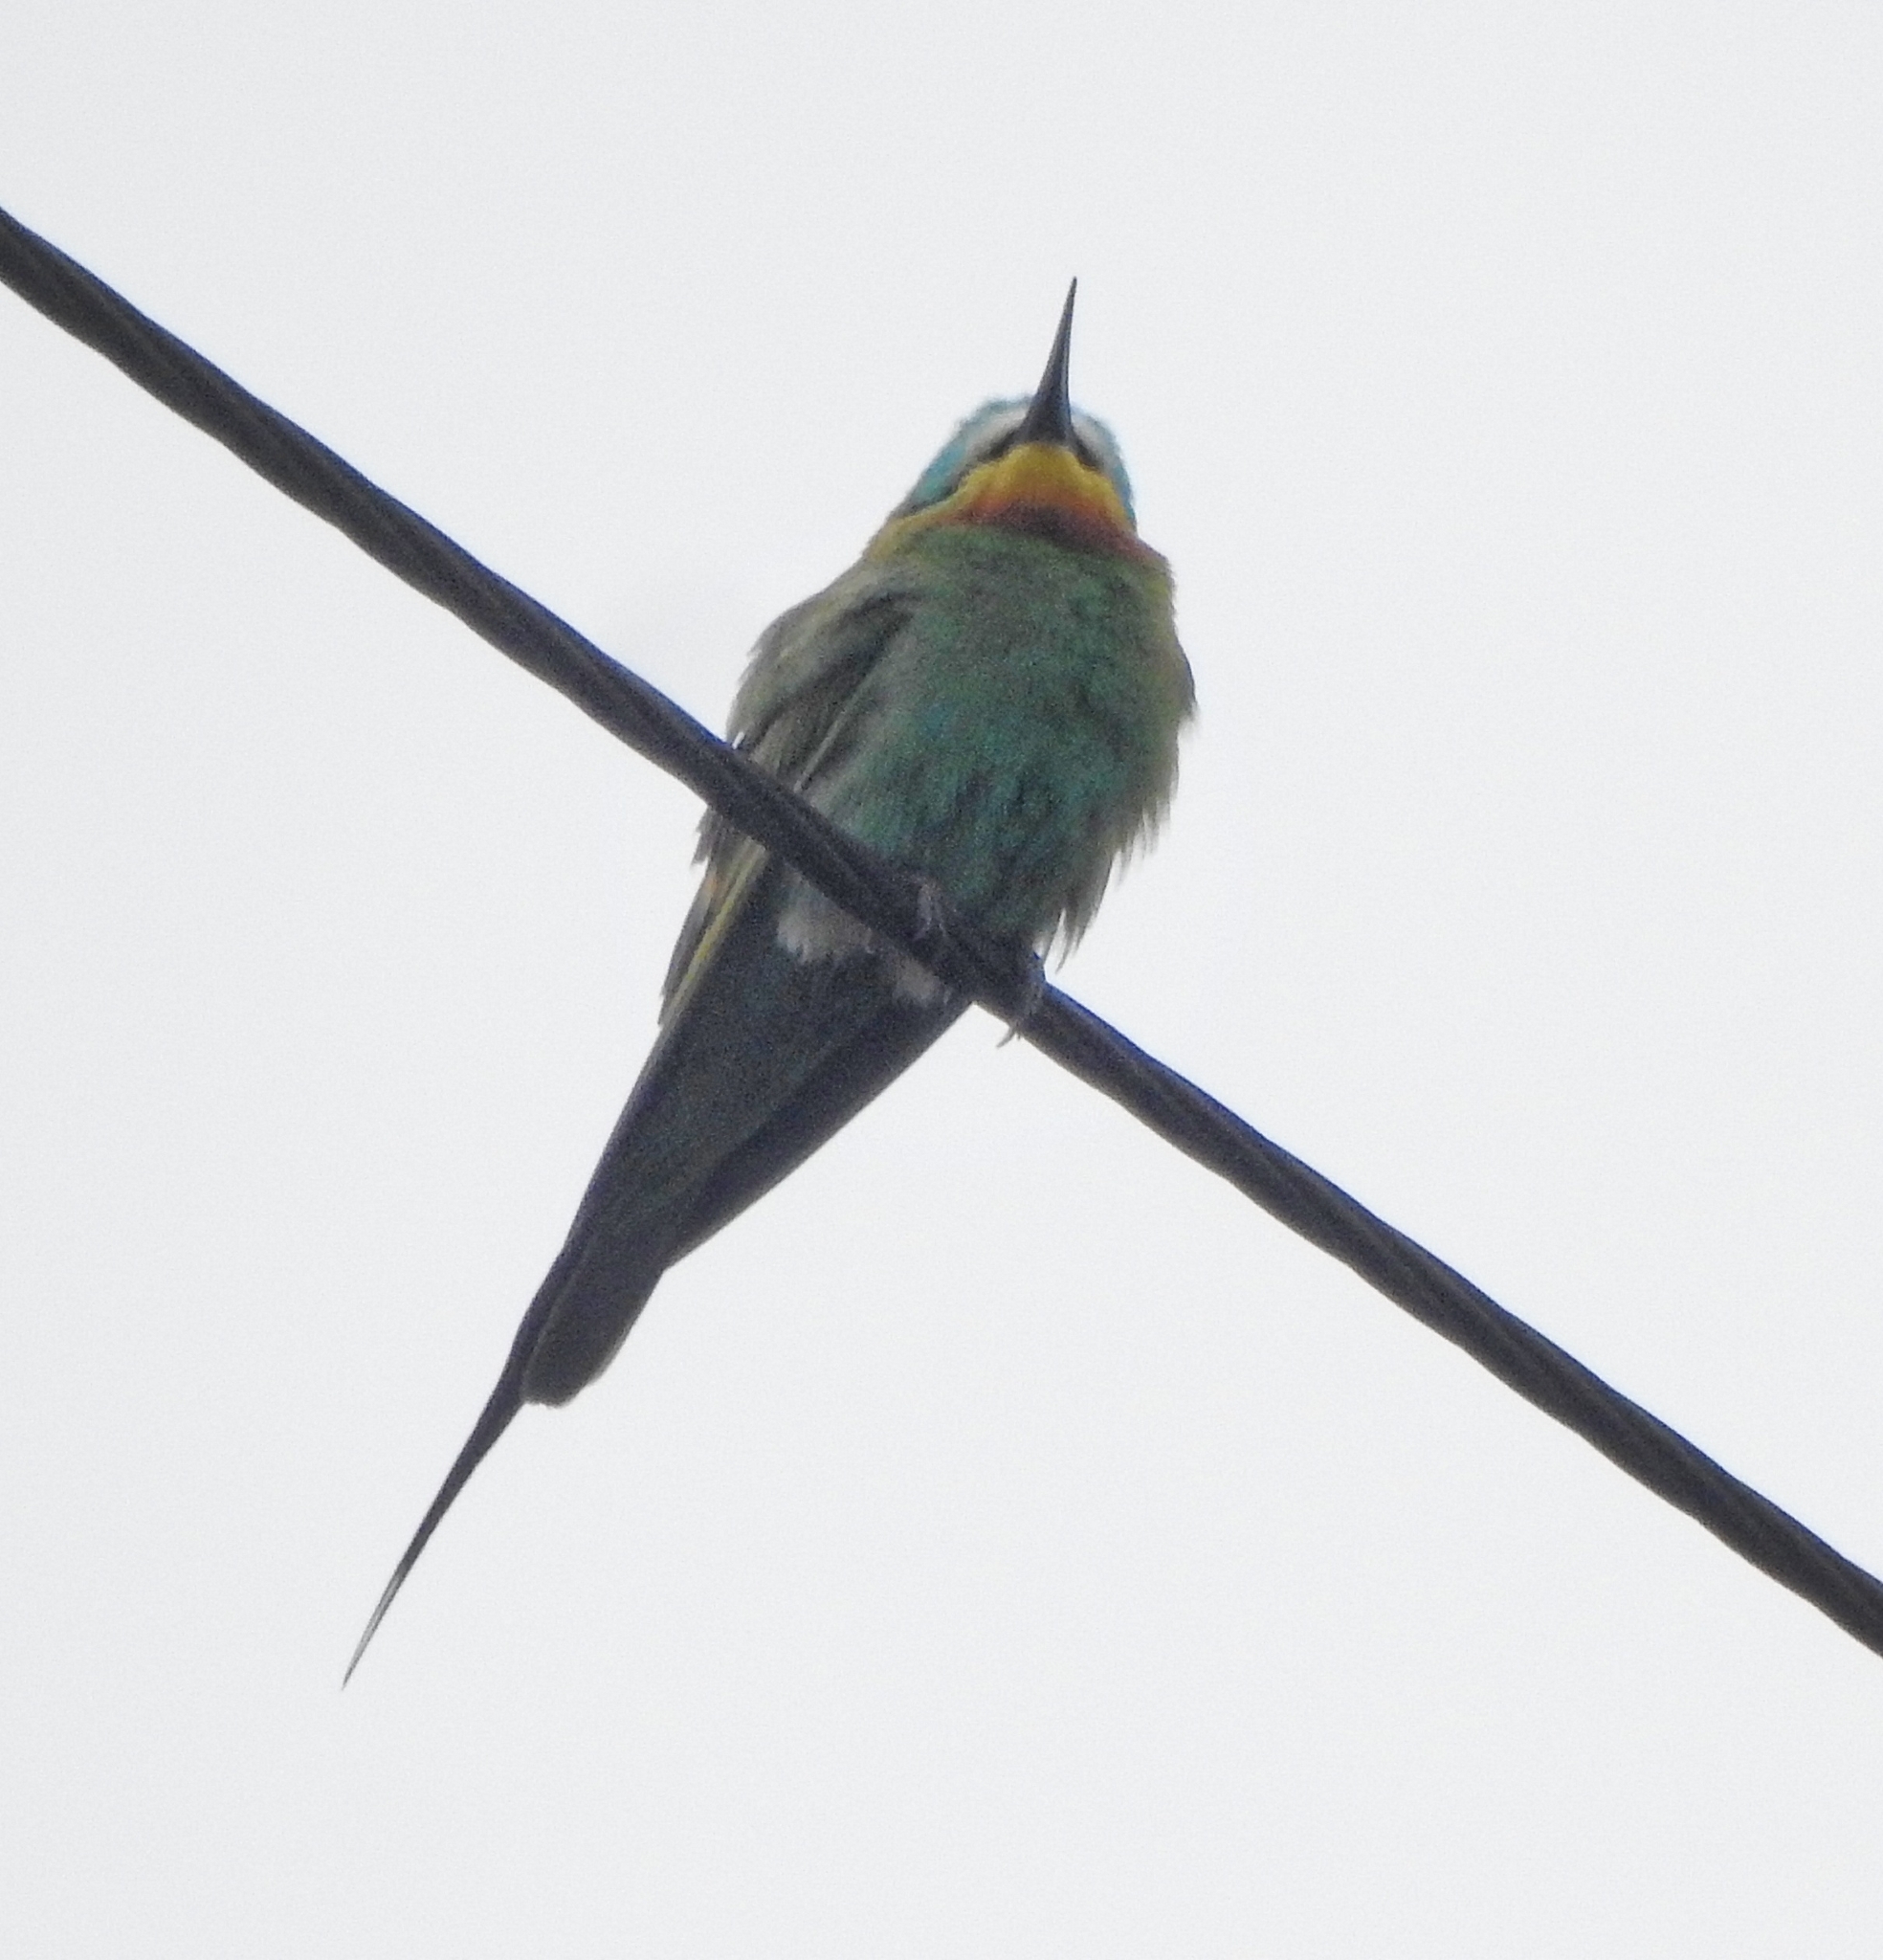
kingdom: Animalia
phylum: Chordata
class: Aves
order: Coraciiformes
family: Meropidae
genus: Merops
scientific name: Merops persicus
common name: Blue-cheeked bee-eater
